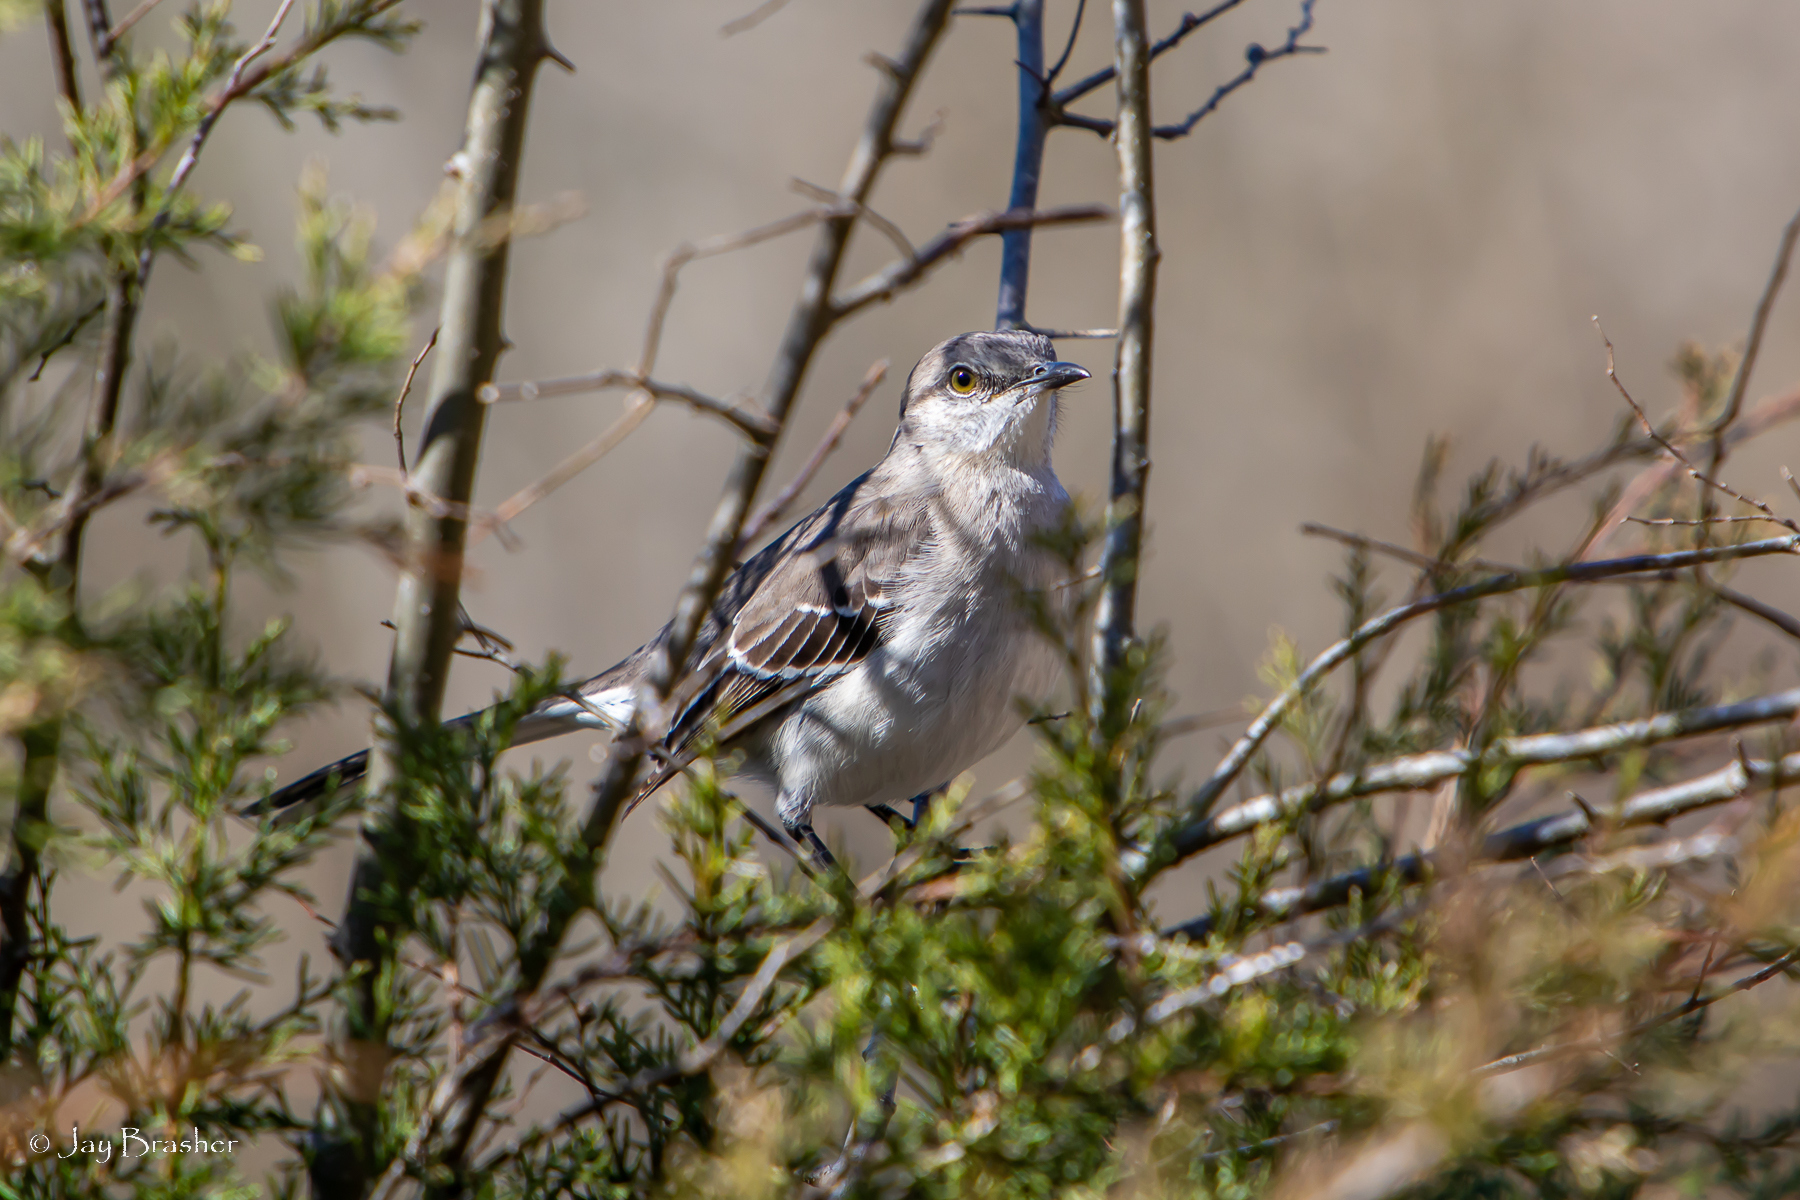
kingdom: Animalia
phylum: Chordata
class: Aves
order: Passeriformes
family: Mimidae
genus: Mimus
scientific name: Mimus polyglottos
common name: Northern mockingbird
